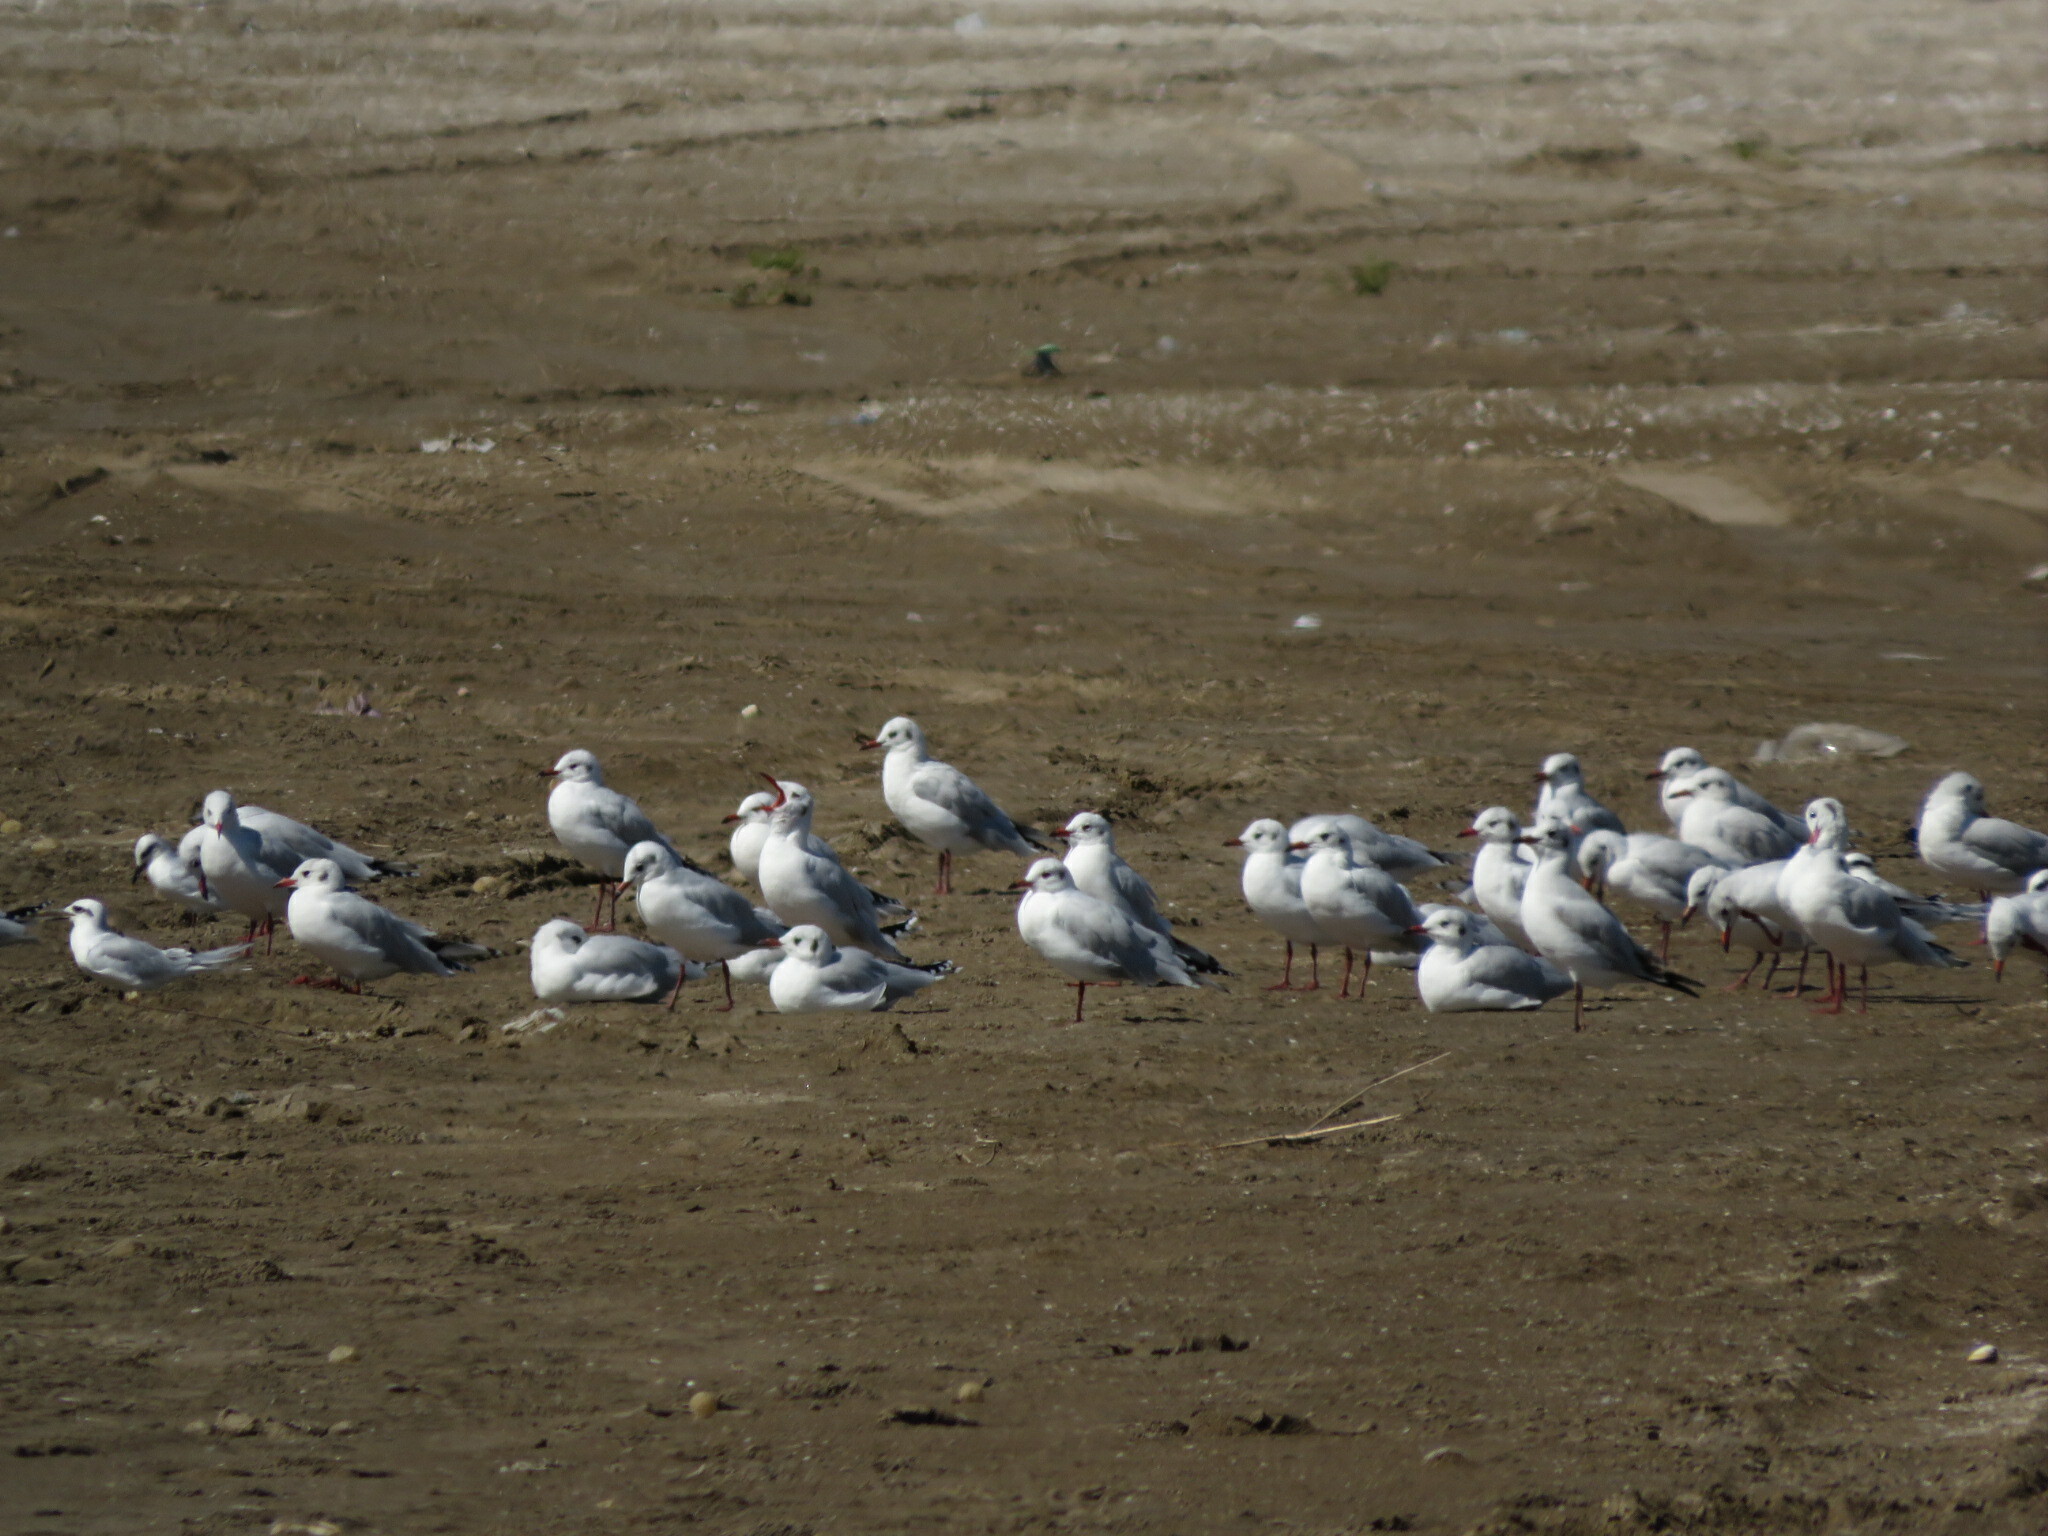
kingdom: Animalia
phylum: Chordata
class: Aves
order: Charadriiformes
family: Laridae
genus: Chroicocephalus
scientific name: Chroicocephalus maculipennis
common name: Brown-hooded gull
